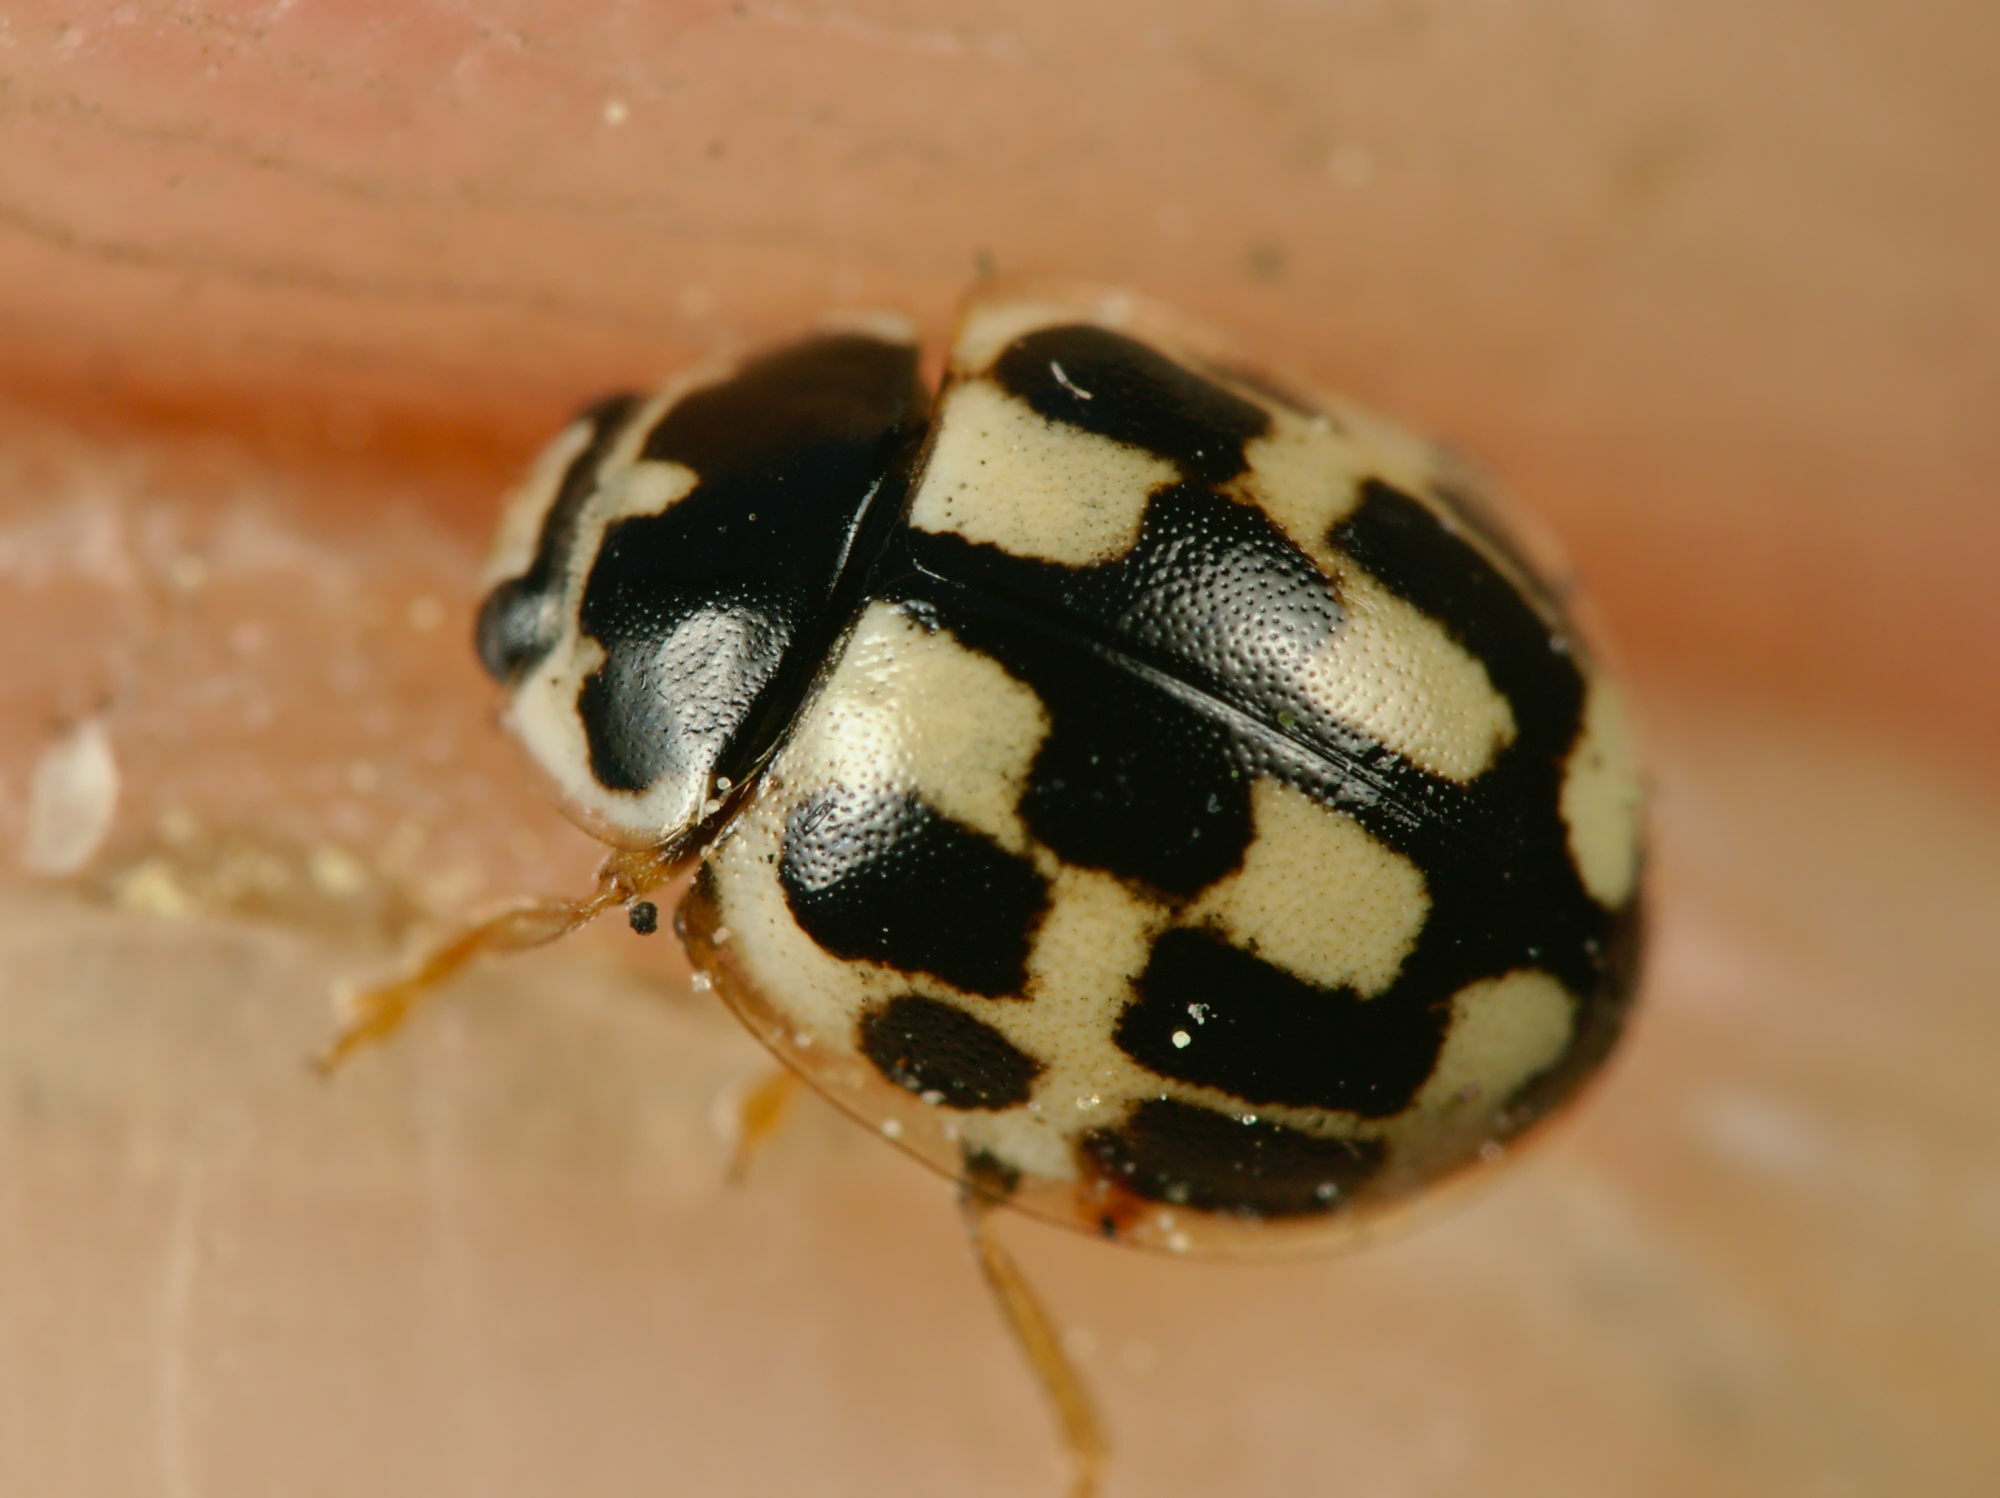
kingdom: Animalia
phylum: Arthropoda
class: Insecta
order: Coleoptera
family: Coccinellidae
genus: Propylaea
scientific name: Propylaea quatuordecimpunctata
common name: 14-spotted ladybird beetle
